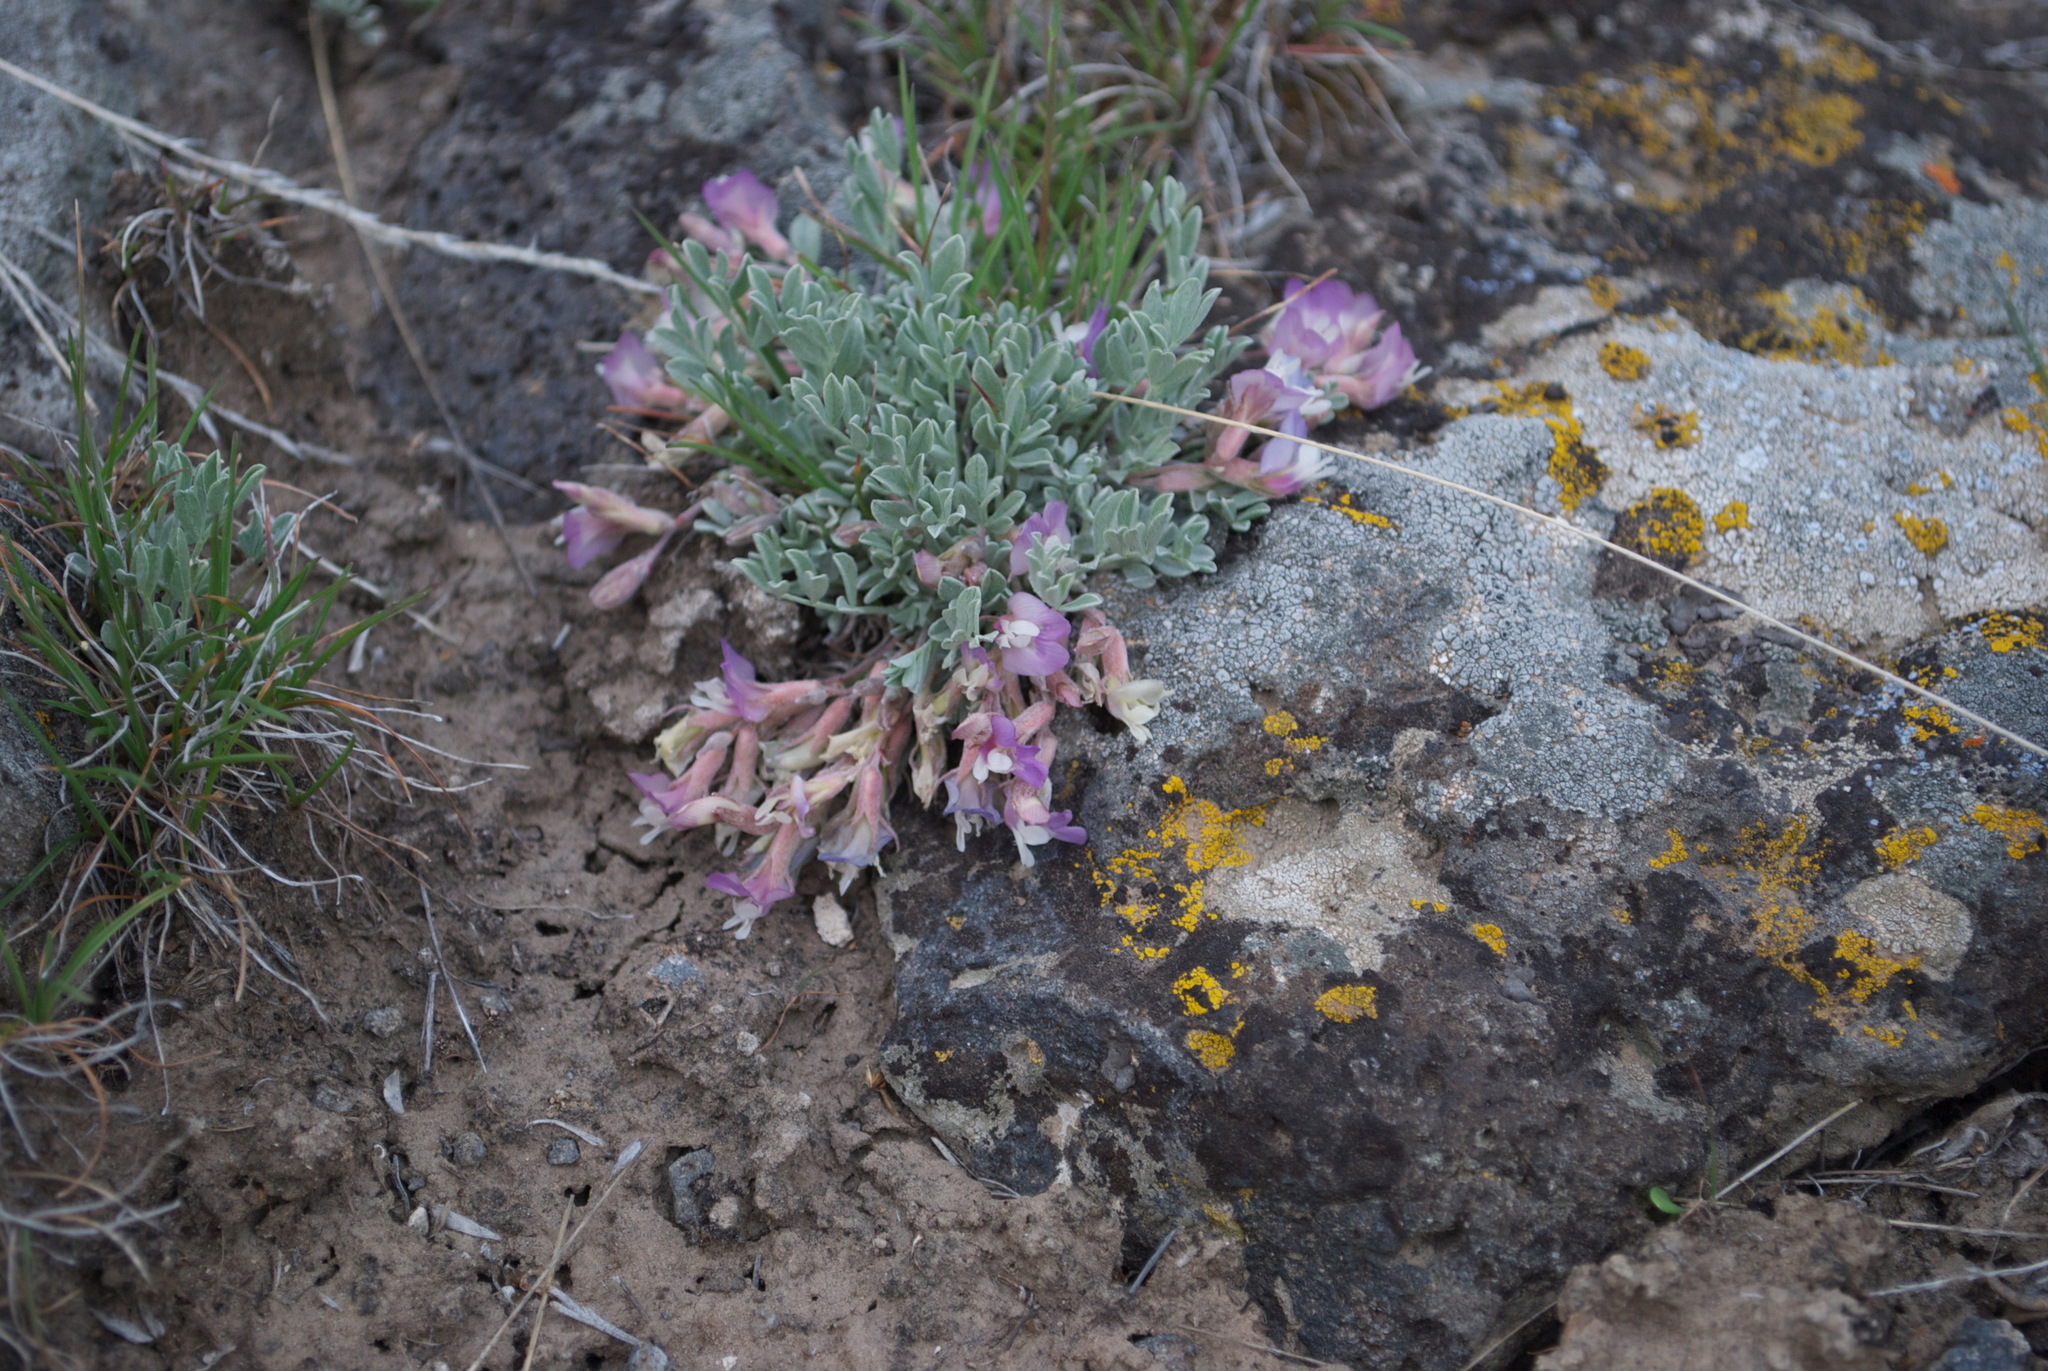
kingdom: Plantae
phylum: Tracheophyta
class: Magnoliopsida
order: Fabales
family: Fabaceae
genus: Astragalus
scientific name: Astragalus calycosus
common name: King's milkvetch
